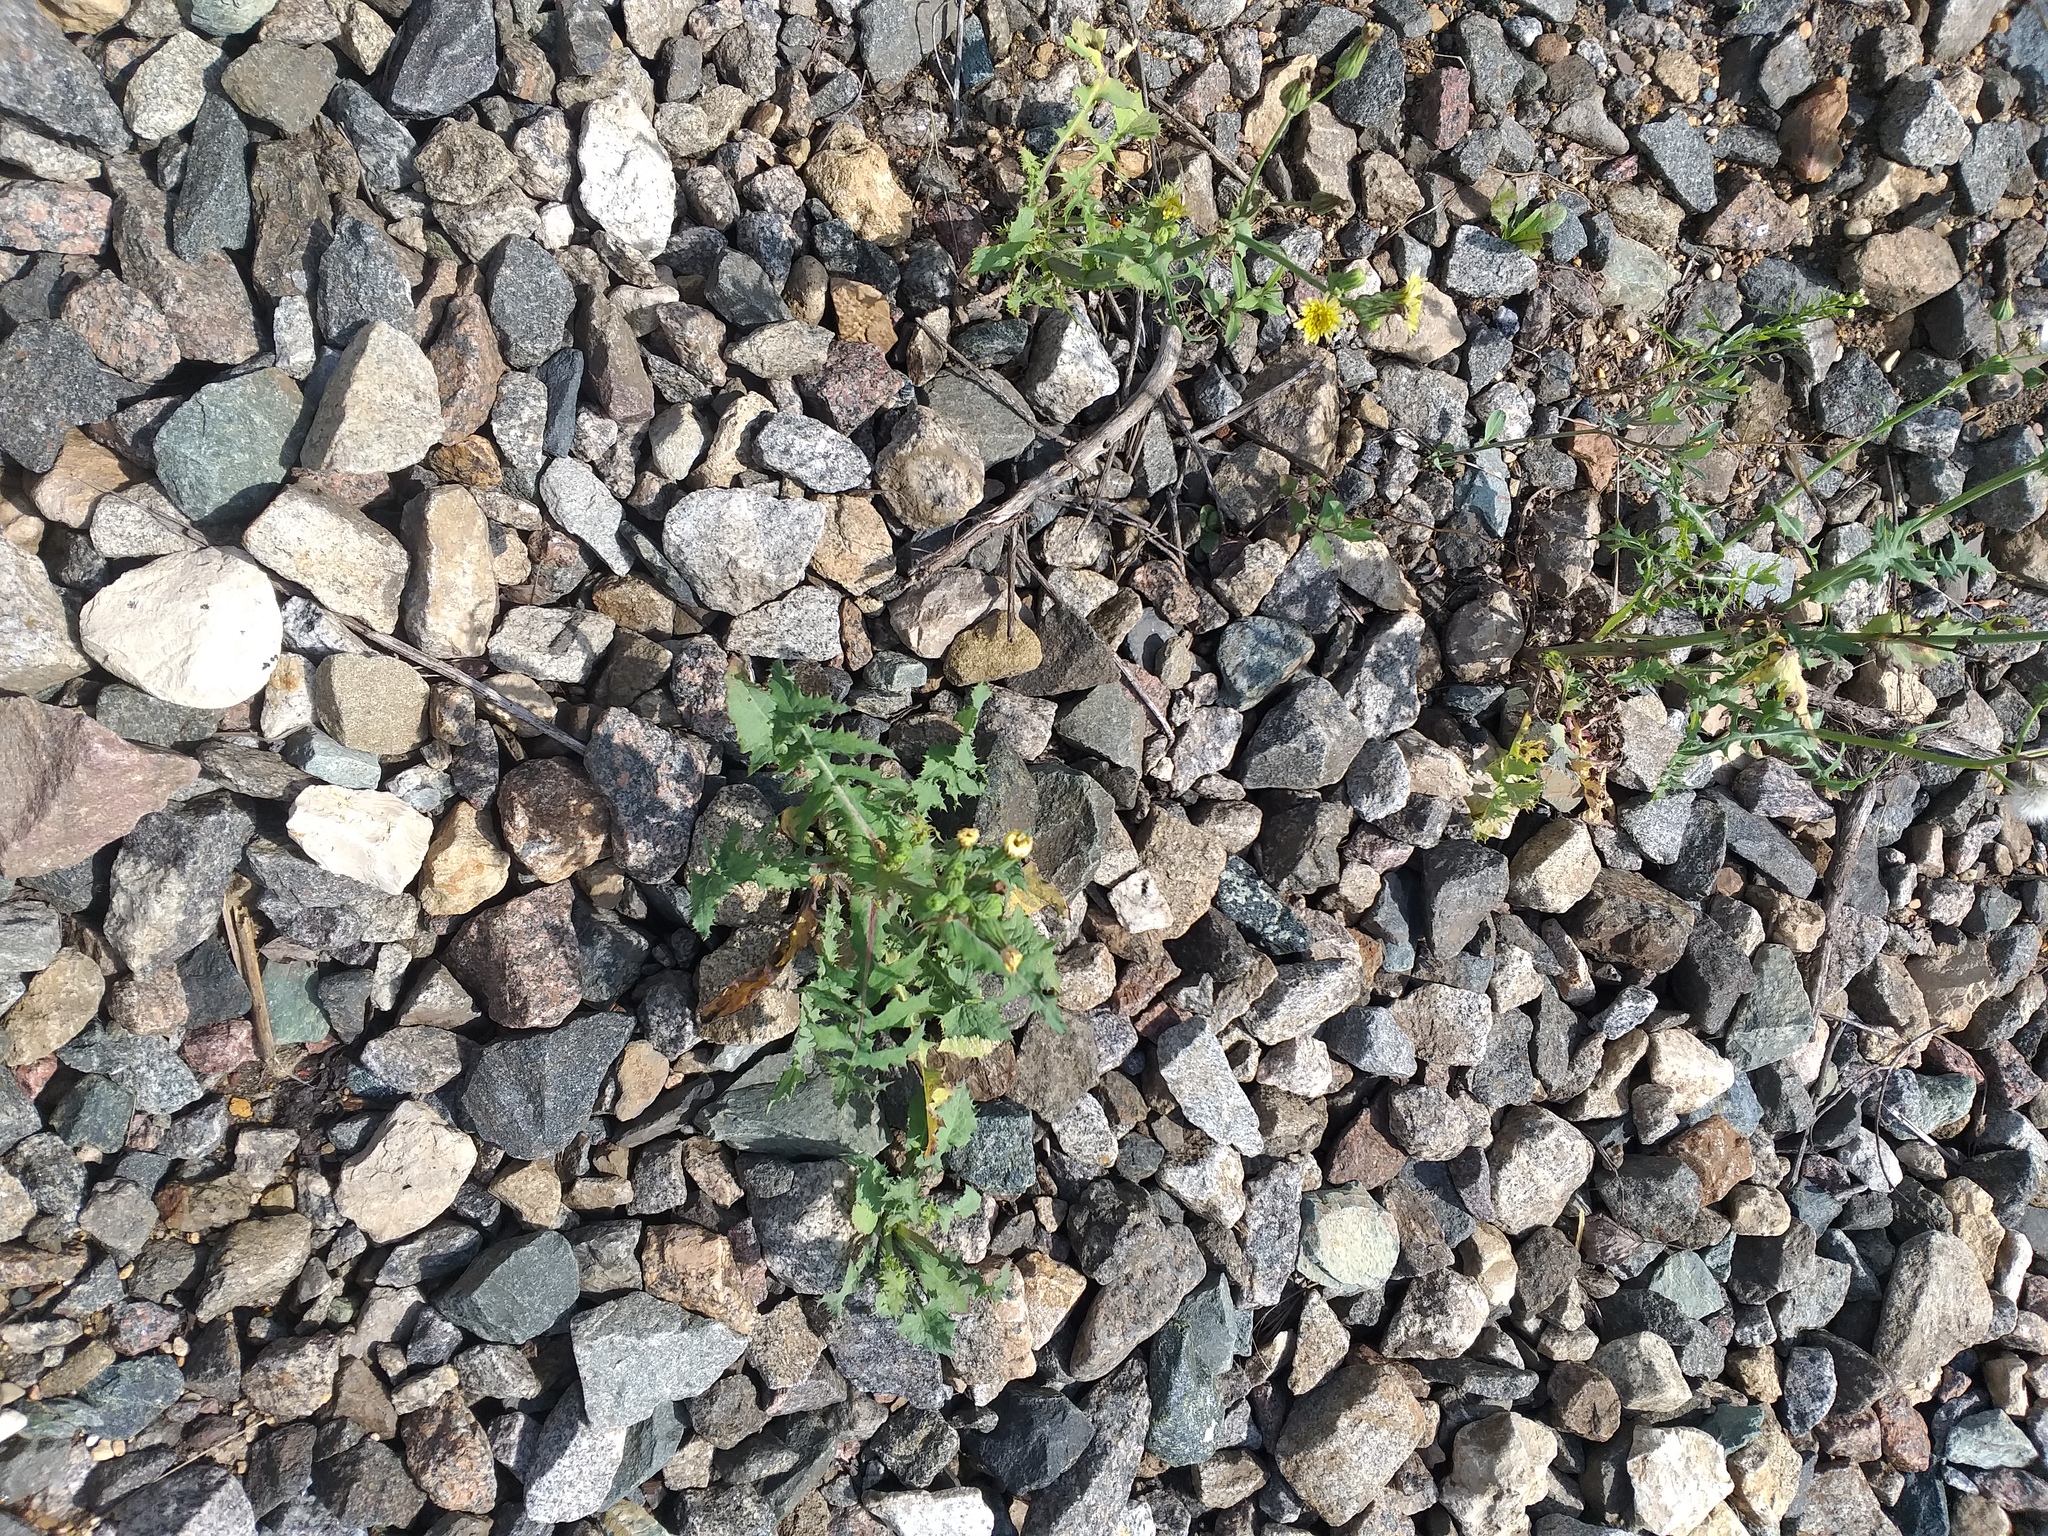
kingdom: Plantae
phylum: Tracheophyta
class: Magnoliopsida
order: Asterales
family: Asteraceae
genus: Sonchus
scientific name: Sonchus oleraceus
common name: Common sowthistle
